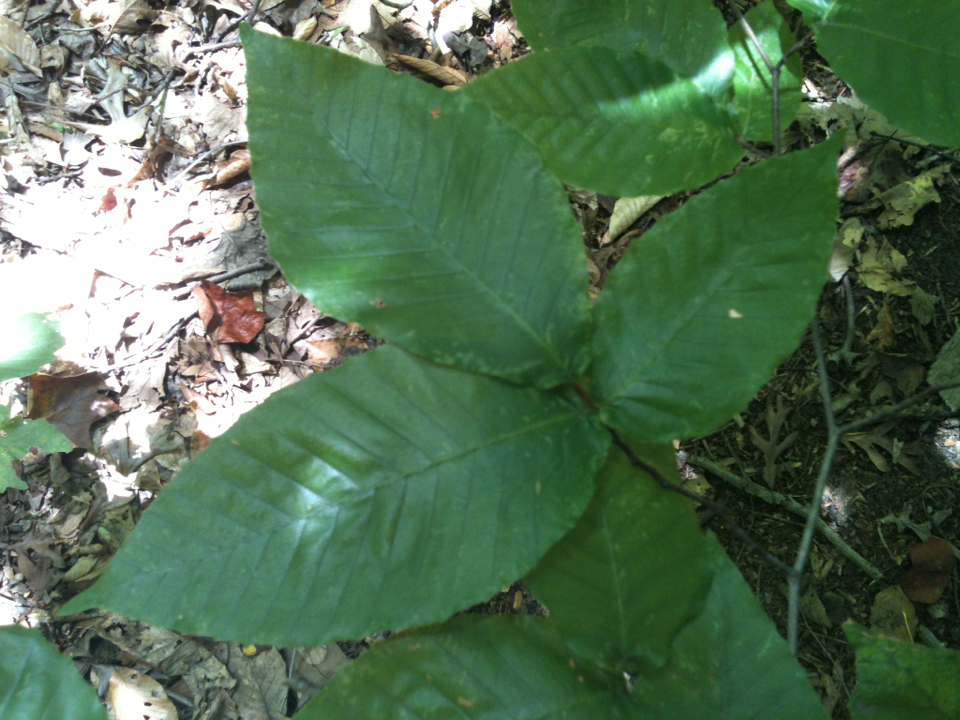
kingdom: Plantae
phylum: Tracheophyta
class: Magnoliopsida
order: Fagales
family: Fagaceae
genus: Fagus
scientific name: Fagus grandifolia
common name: American beech
